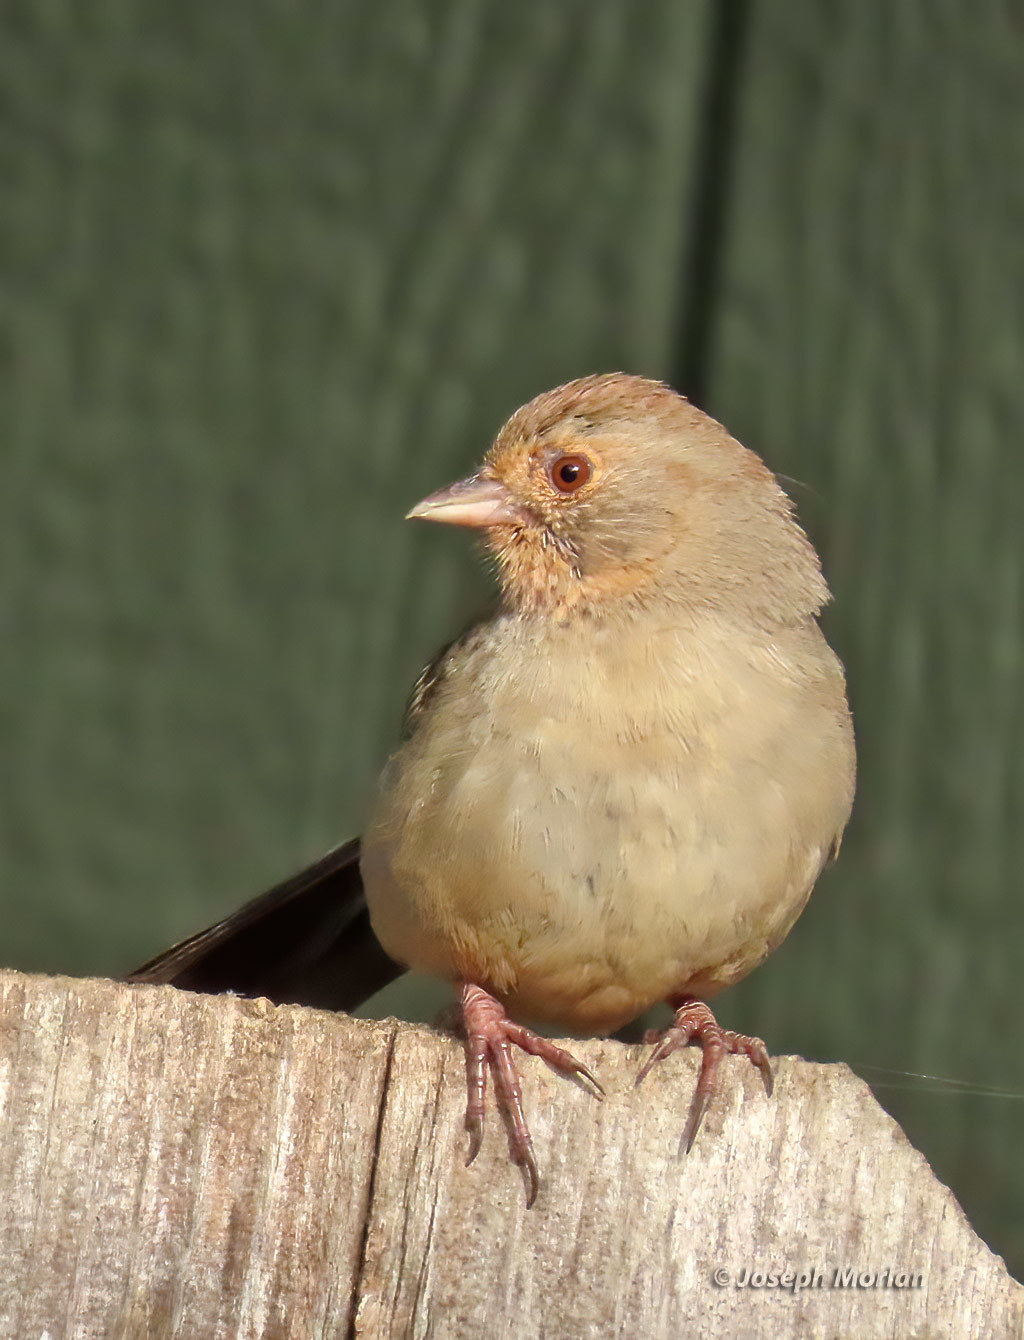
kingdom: Animalia
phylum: Chordata
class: Aves
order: Passeriformes
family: Passerellidae
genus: Melozone
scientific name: Melozone crissalis
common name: California towhee
